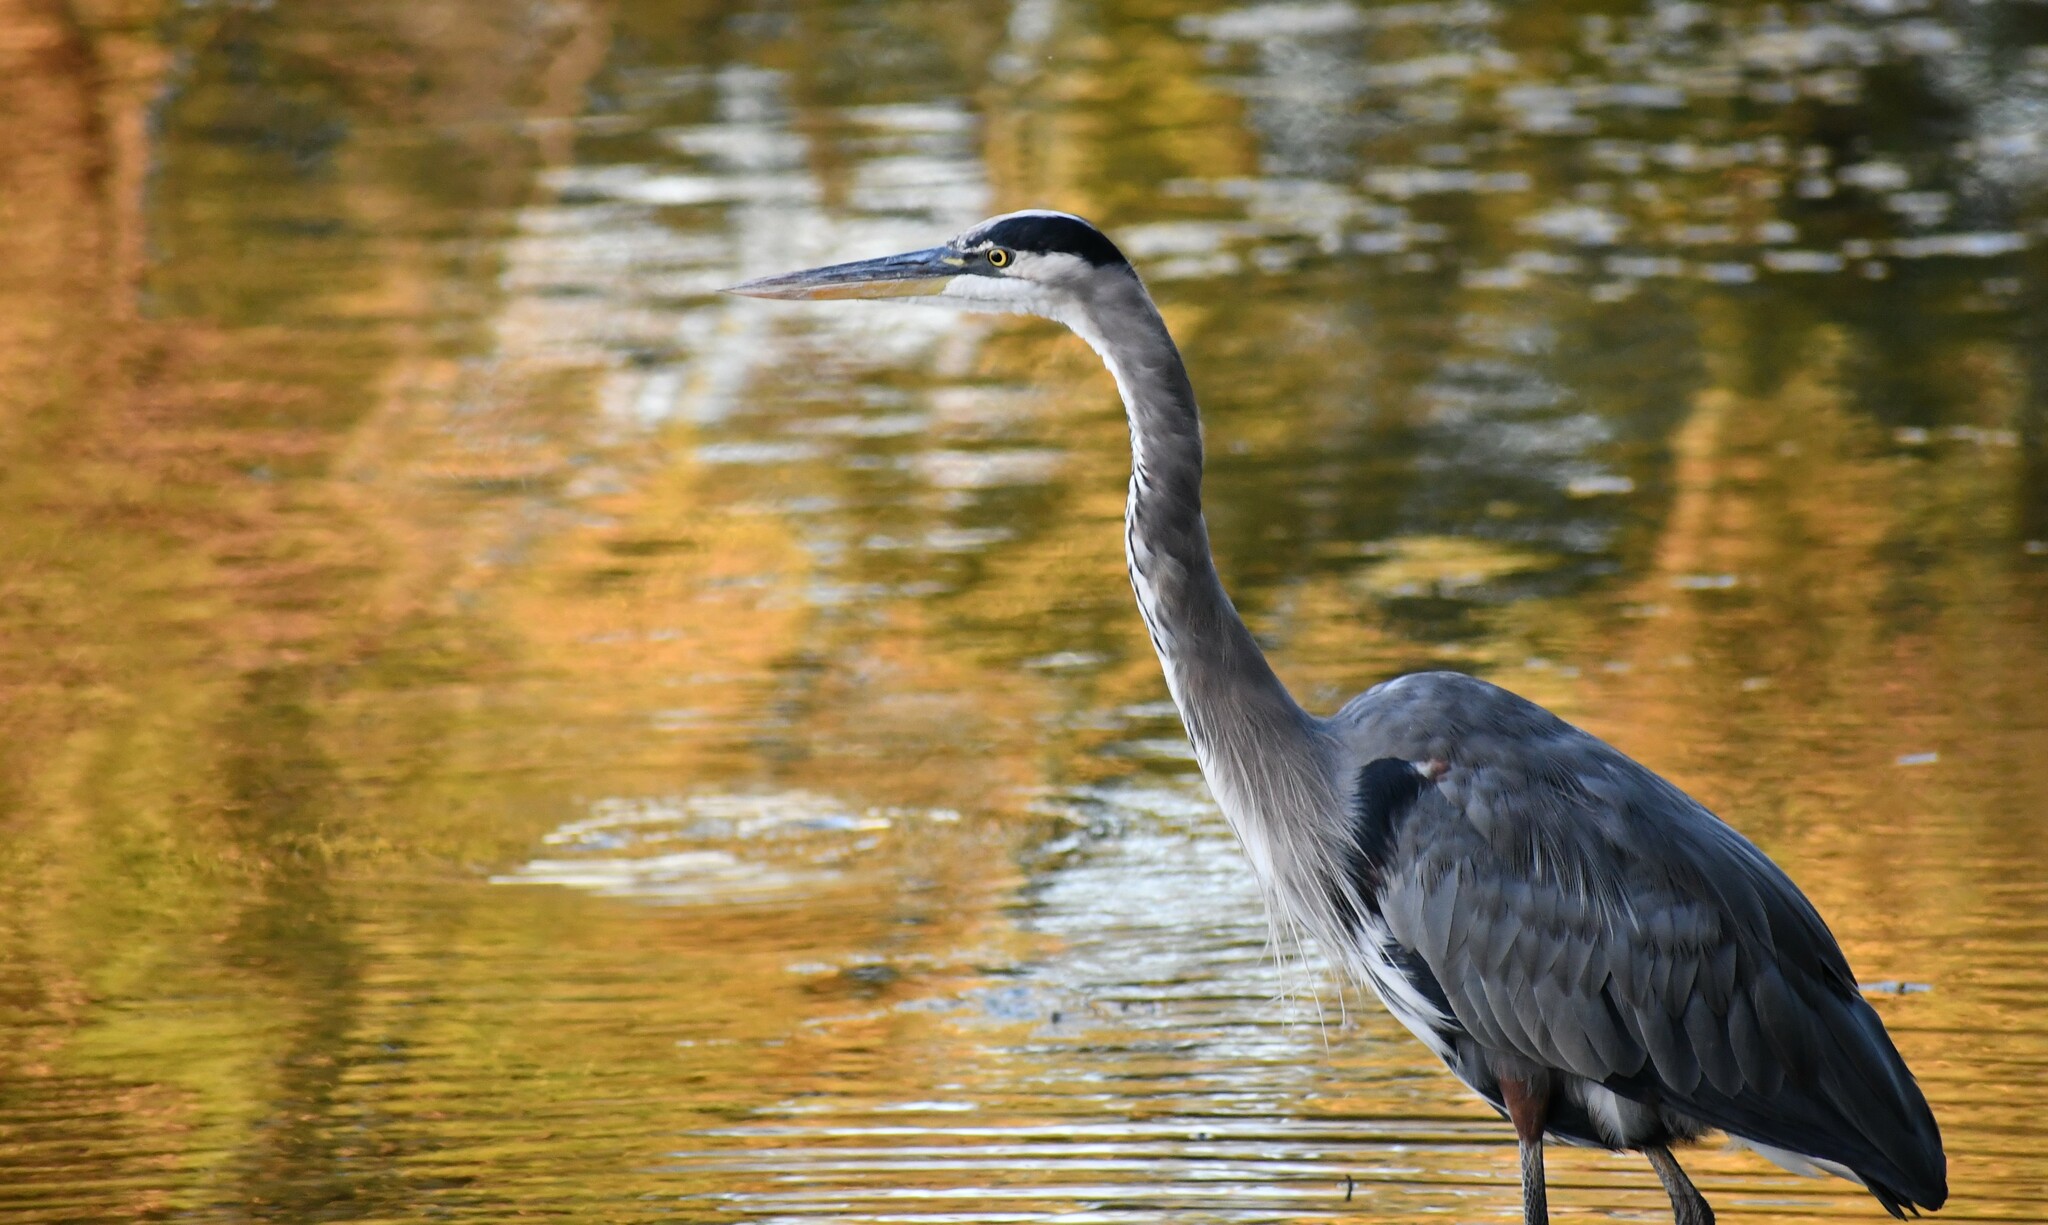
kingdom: Animalia
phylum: Chordata
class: Aves
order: Pelecaniformes
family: Ardeidae
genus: Ardea
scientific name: Ardea herodias
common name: Great blue heron
